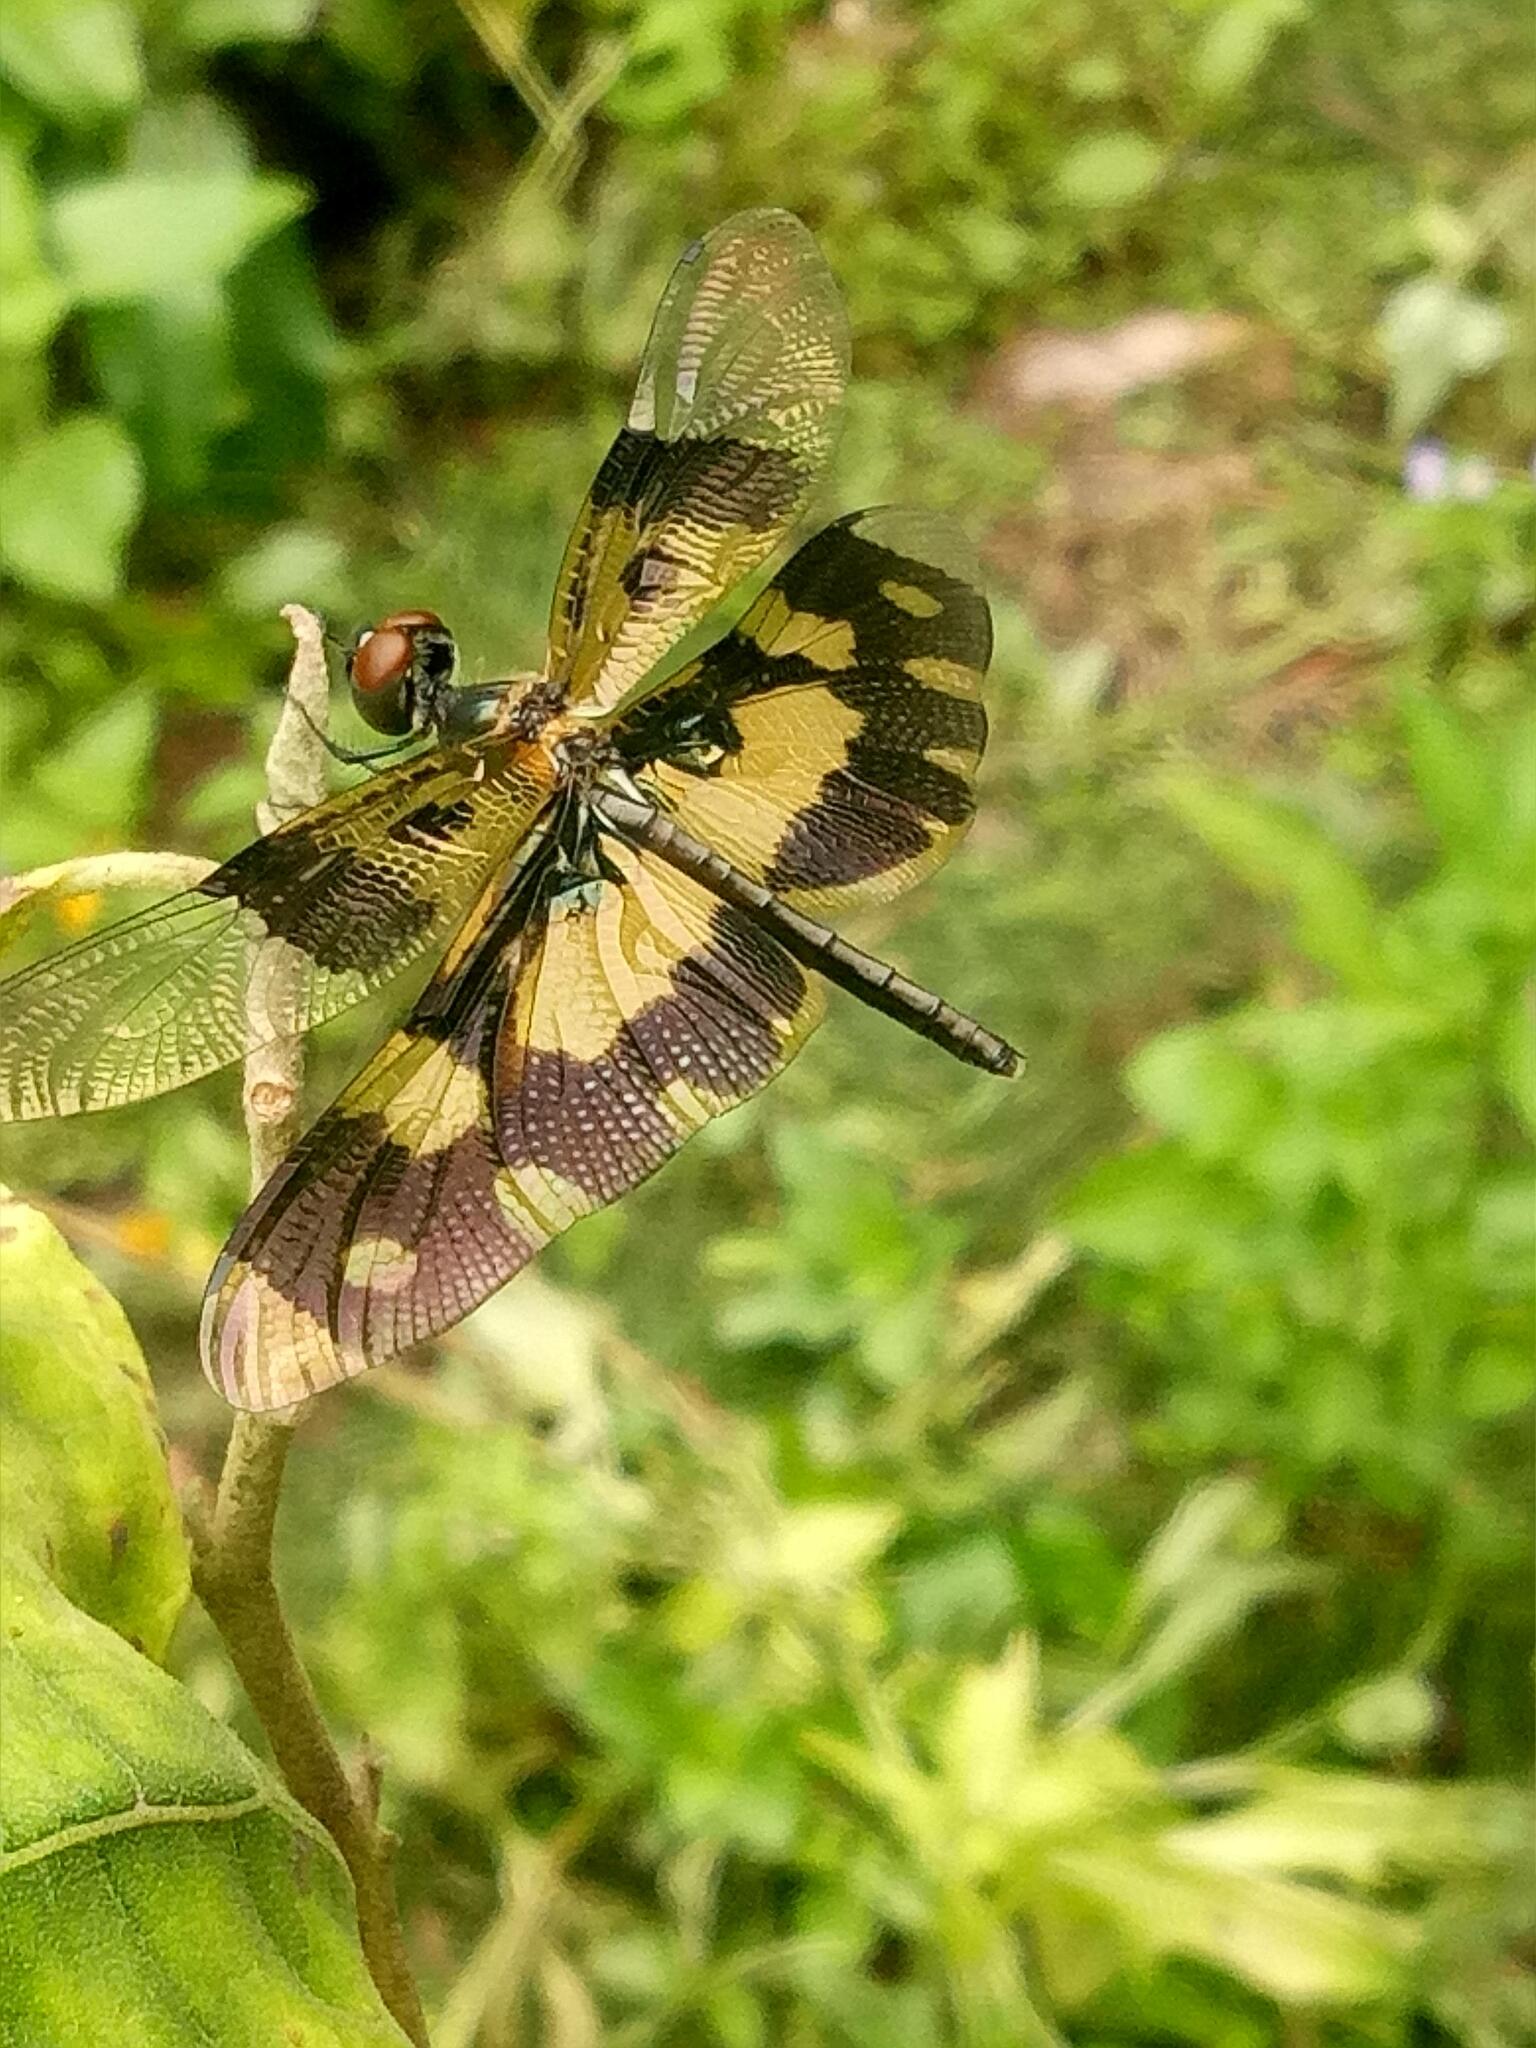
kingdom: Animalia
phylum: Arthropoda
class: Insecta
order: Odonata
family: Libellulidae
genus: Rhyothemis
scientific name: Rhyothemis variegata
